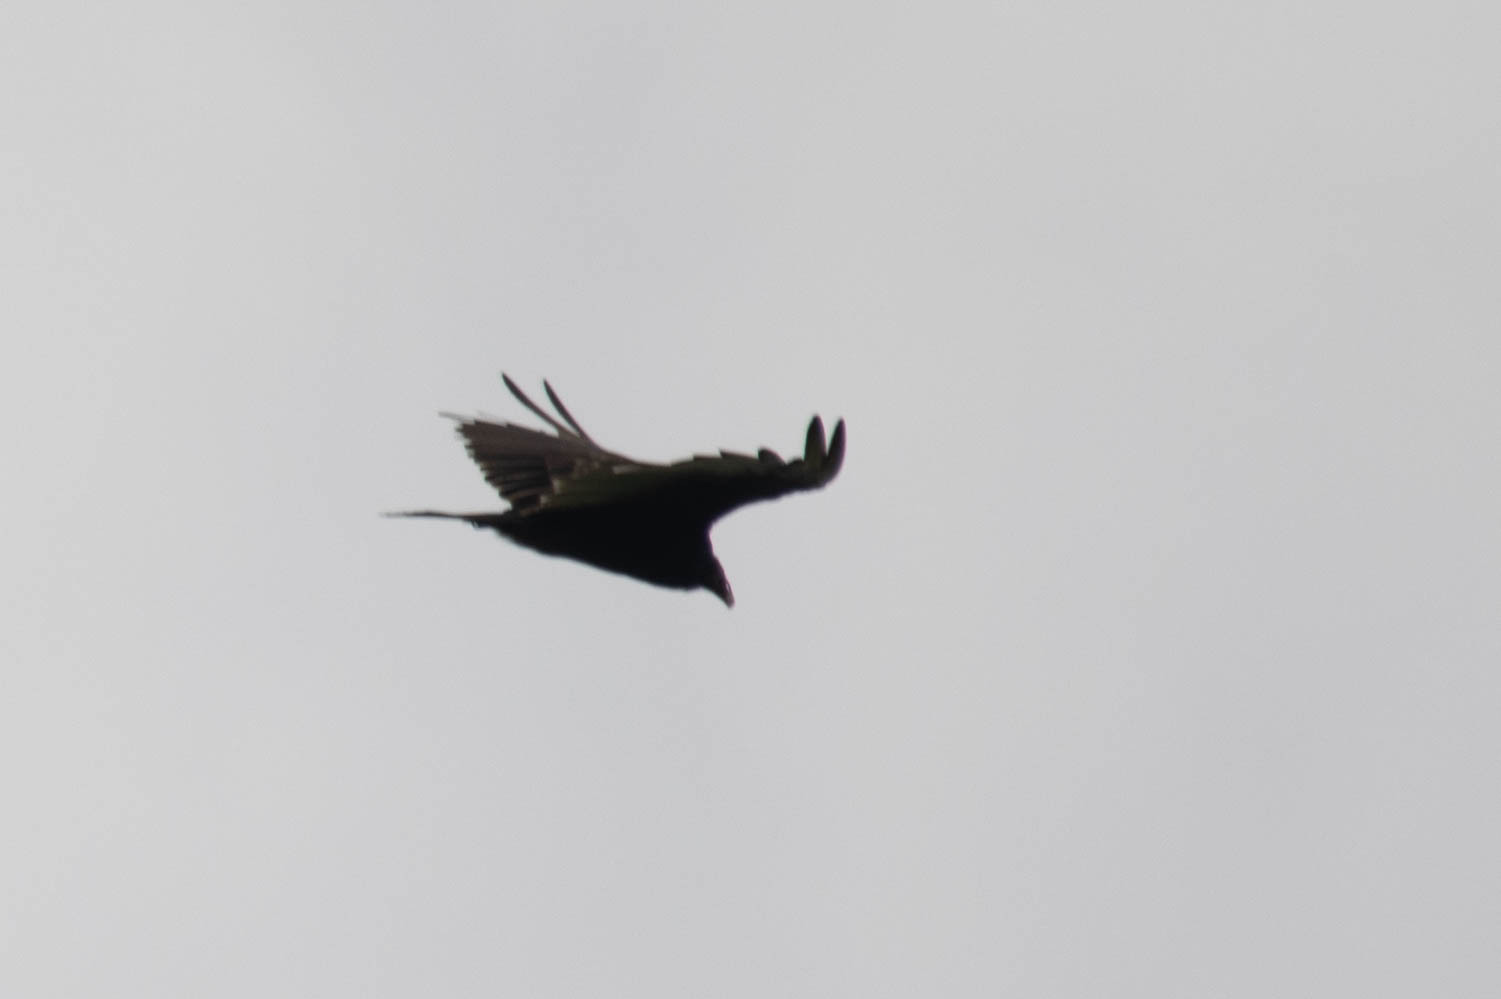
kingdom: Animalia
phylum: Chordata
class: Aves
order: Accipitriformes
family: Cathartidae
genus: Cathartes
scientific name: Cathartes aura
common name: Turkey vulture
